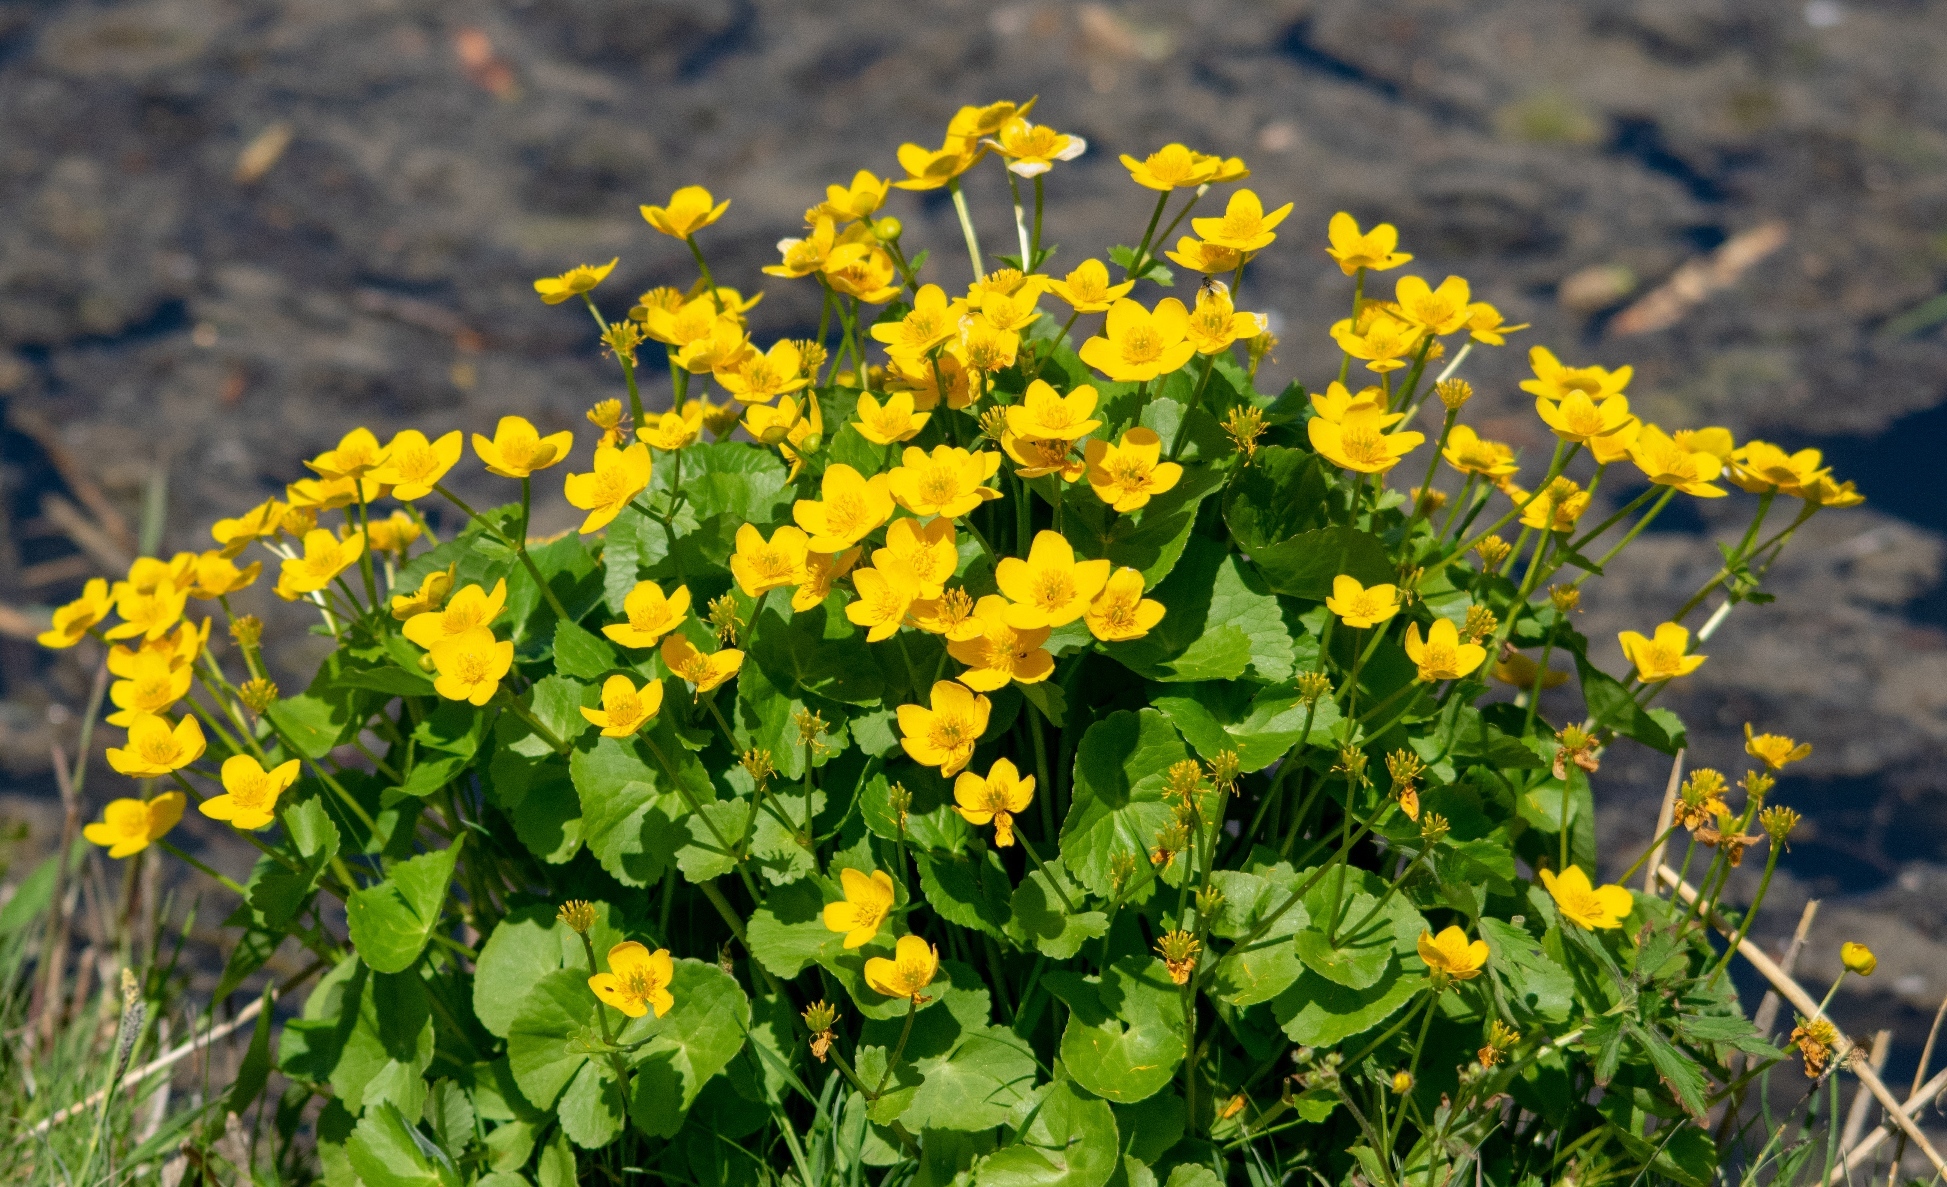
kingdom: Plantae
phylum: Tracheophyta
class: Magnoliopsida
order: Ranunculales
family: Ranunculaceae
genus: Caltha
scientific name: Caltha palustris
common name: Marsh marigold
